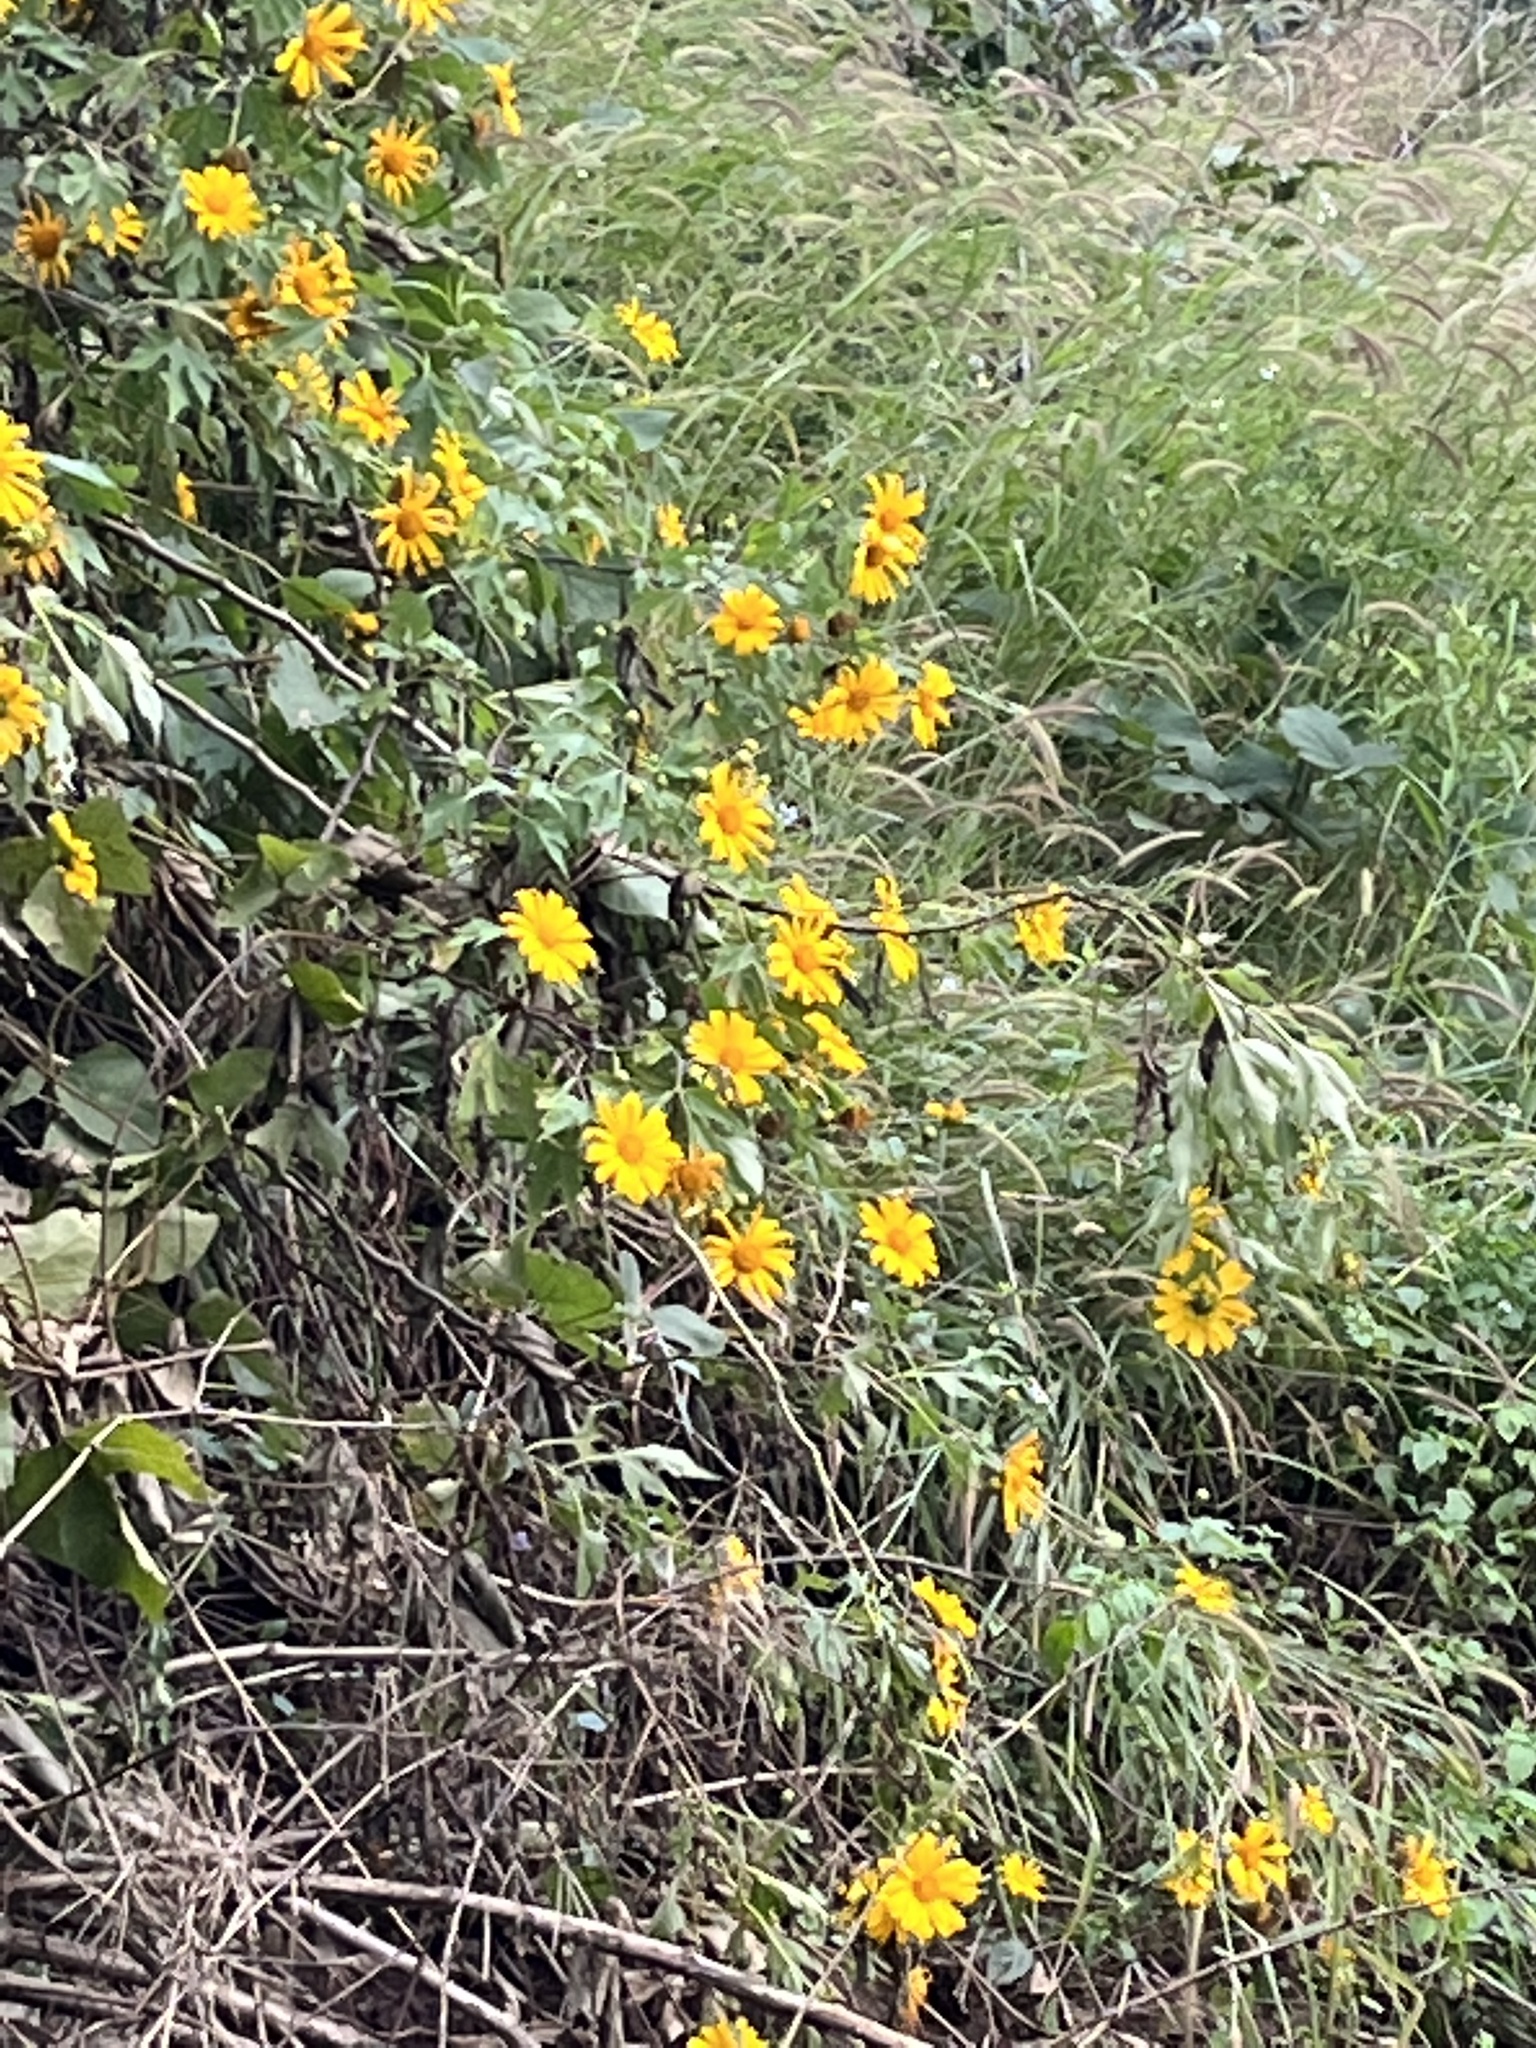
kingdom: Plantae
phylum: Tracheophyta
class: Magnoliopsida
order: Asterales
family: Asteraceae
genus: Tithonia
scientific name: Tithonia diversifolia
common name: Tree marigold
